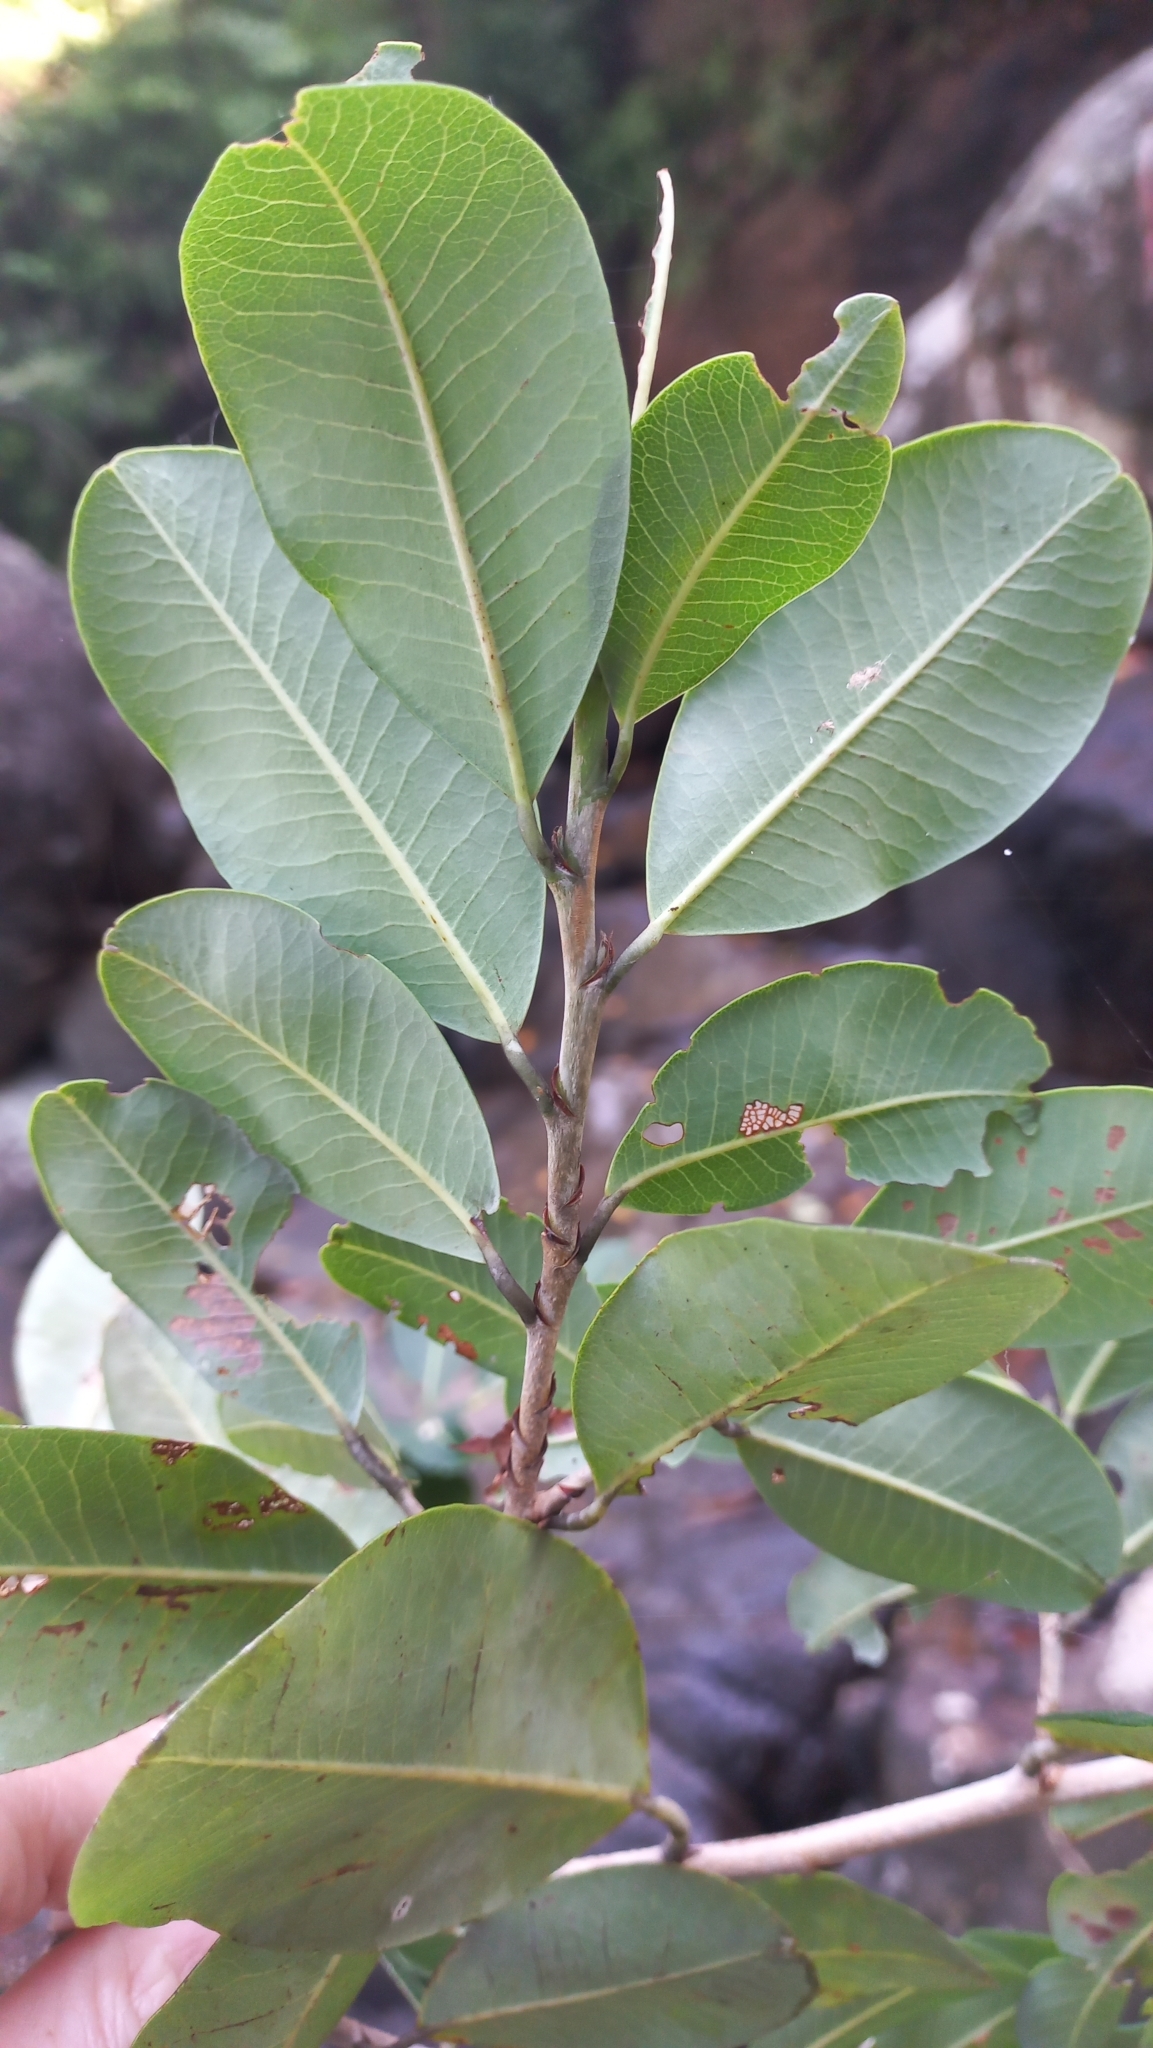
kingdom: Plantae
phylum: Tracheophyta
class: Magnoliopsida
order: Malpighiales
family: Erythroxylaceae
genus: Erythroxylum
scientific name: Erythroxylum argentinum
